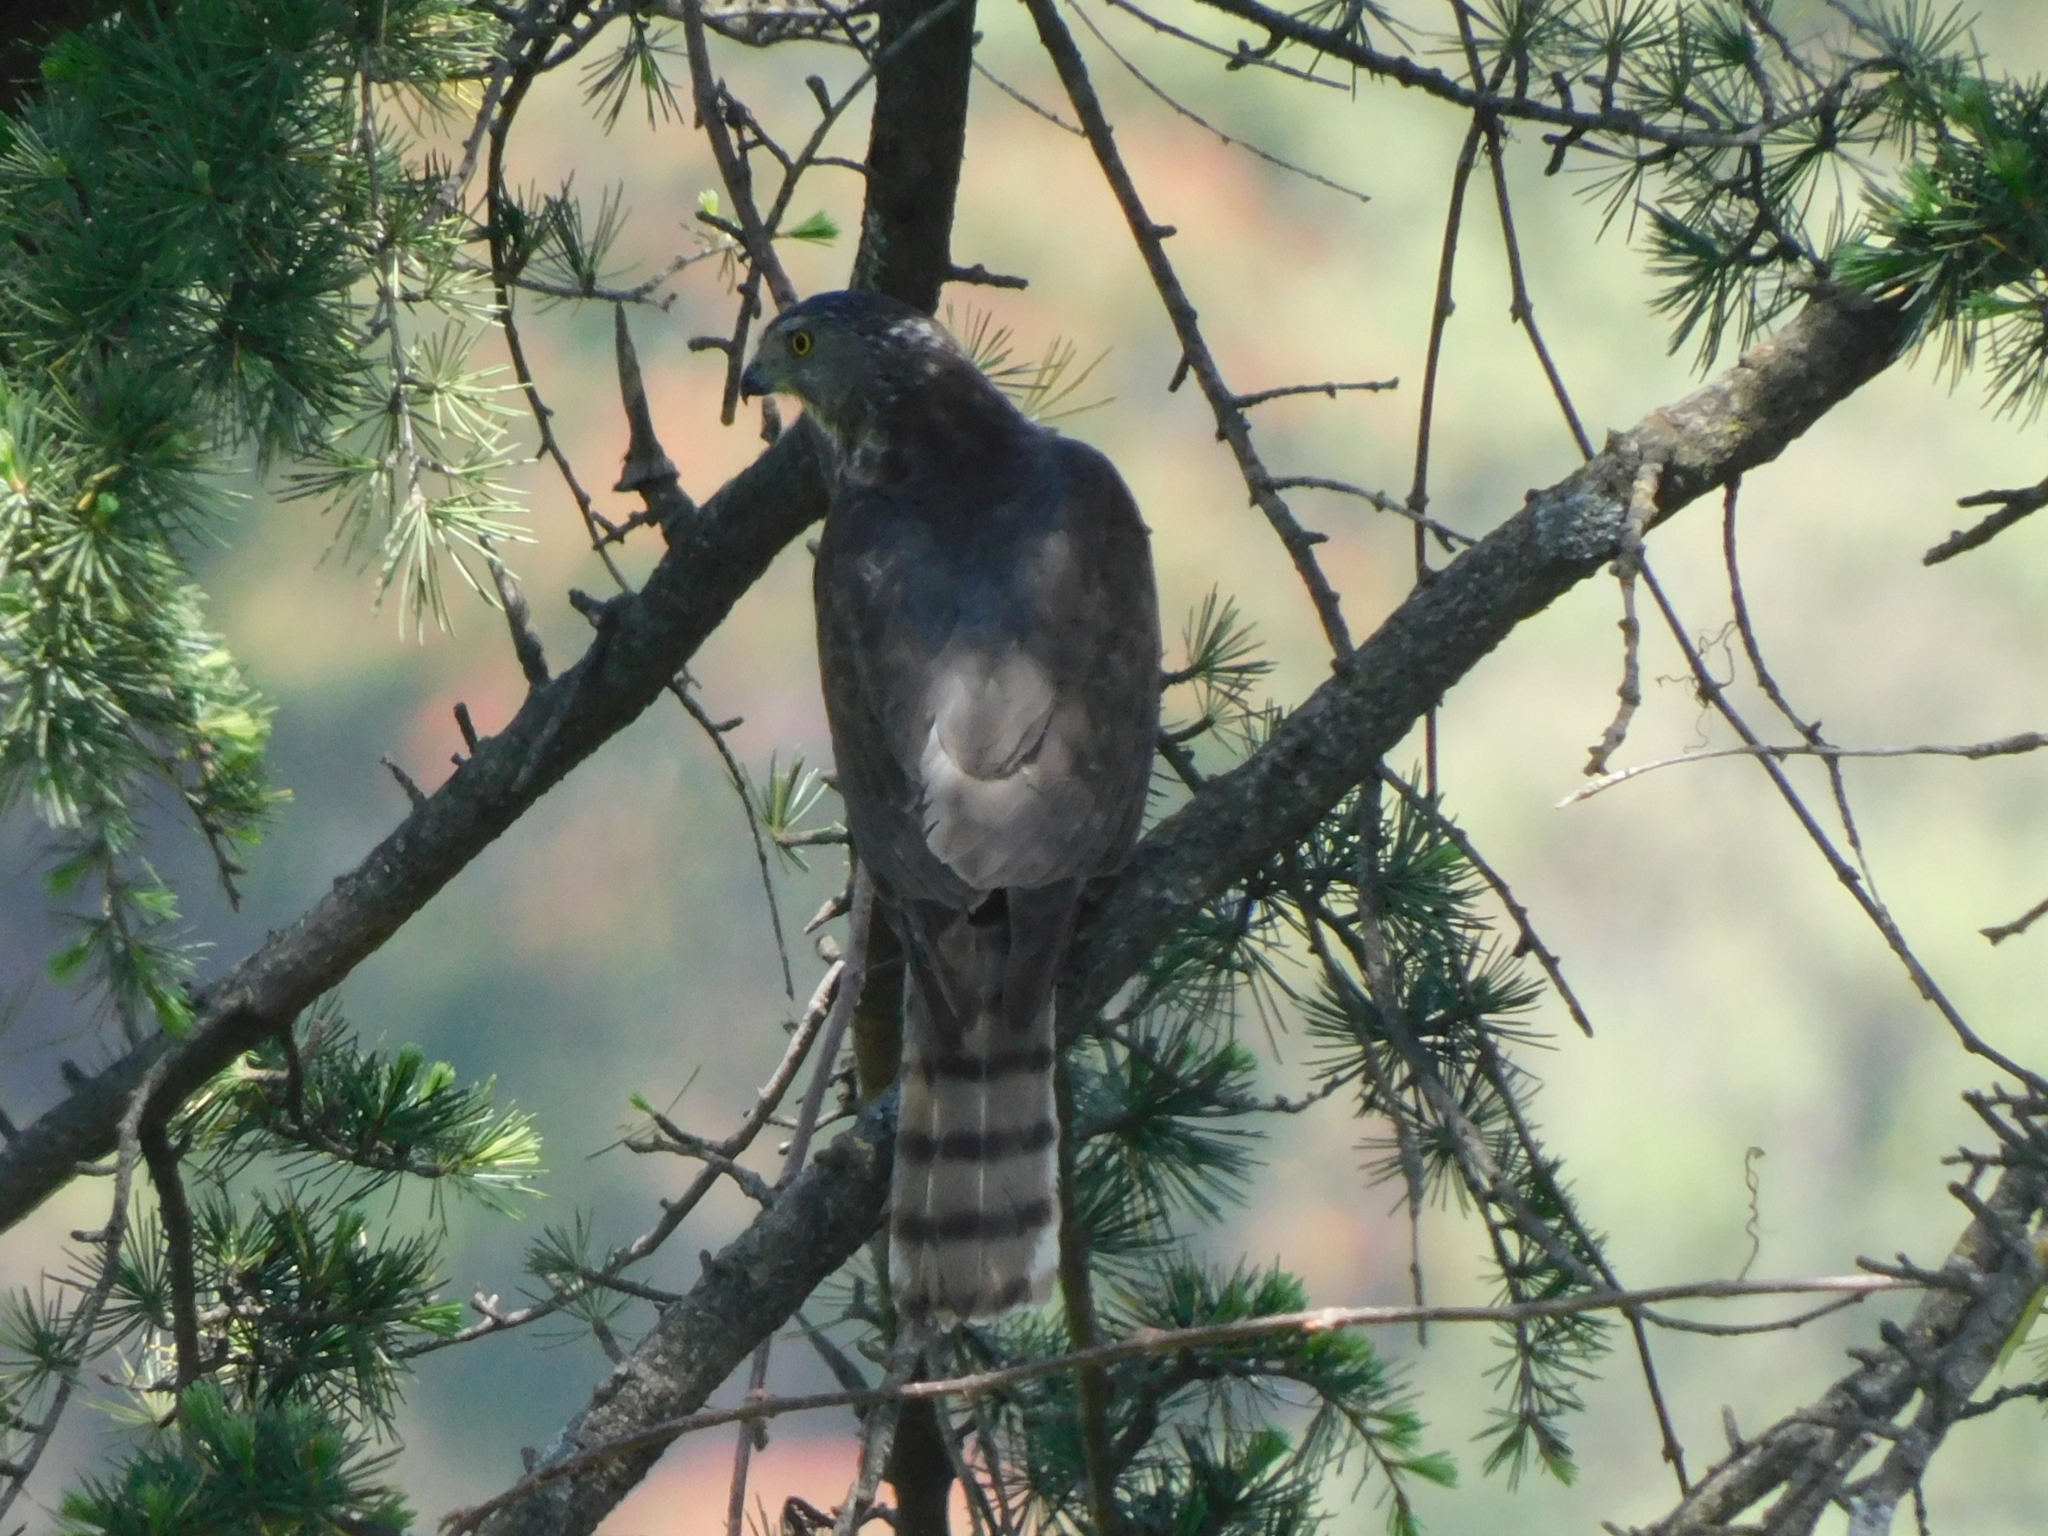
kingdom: Animalia
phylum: Chordata
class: Aves
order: Accipitriformes
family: Accipitridae
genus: Accipiter
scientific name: Accipiter badius
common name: Shikra
